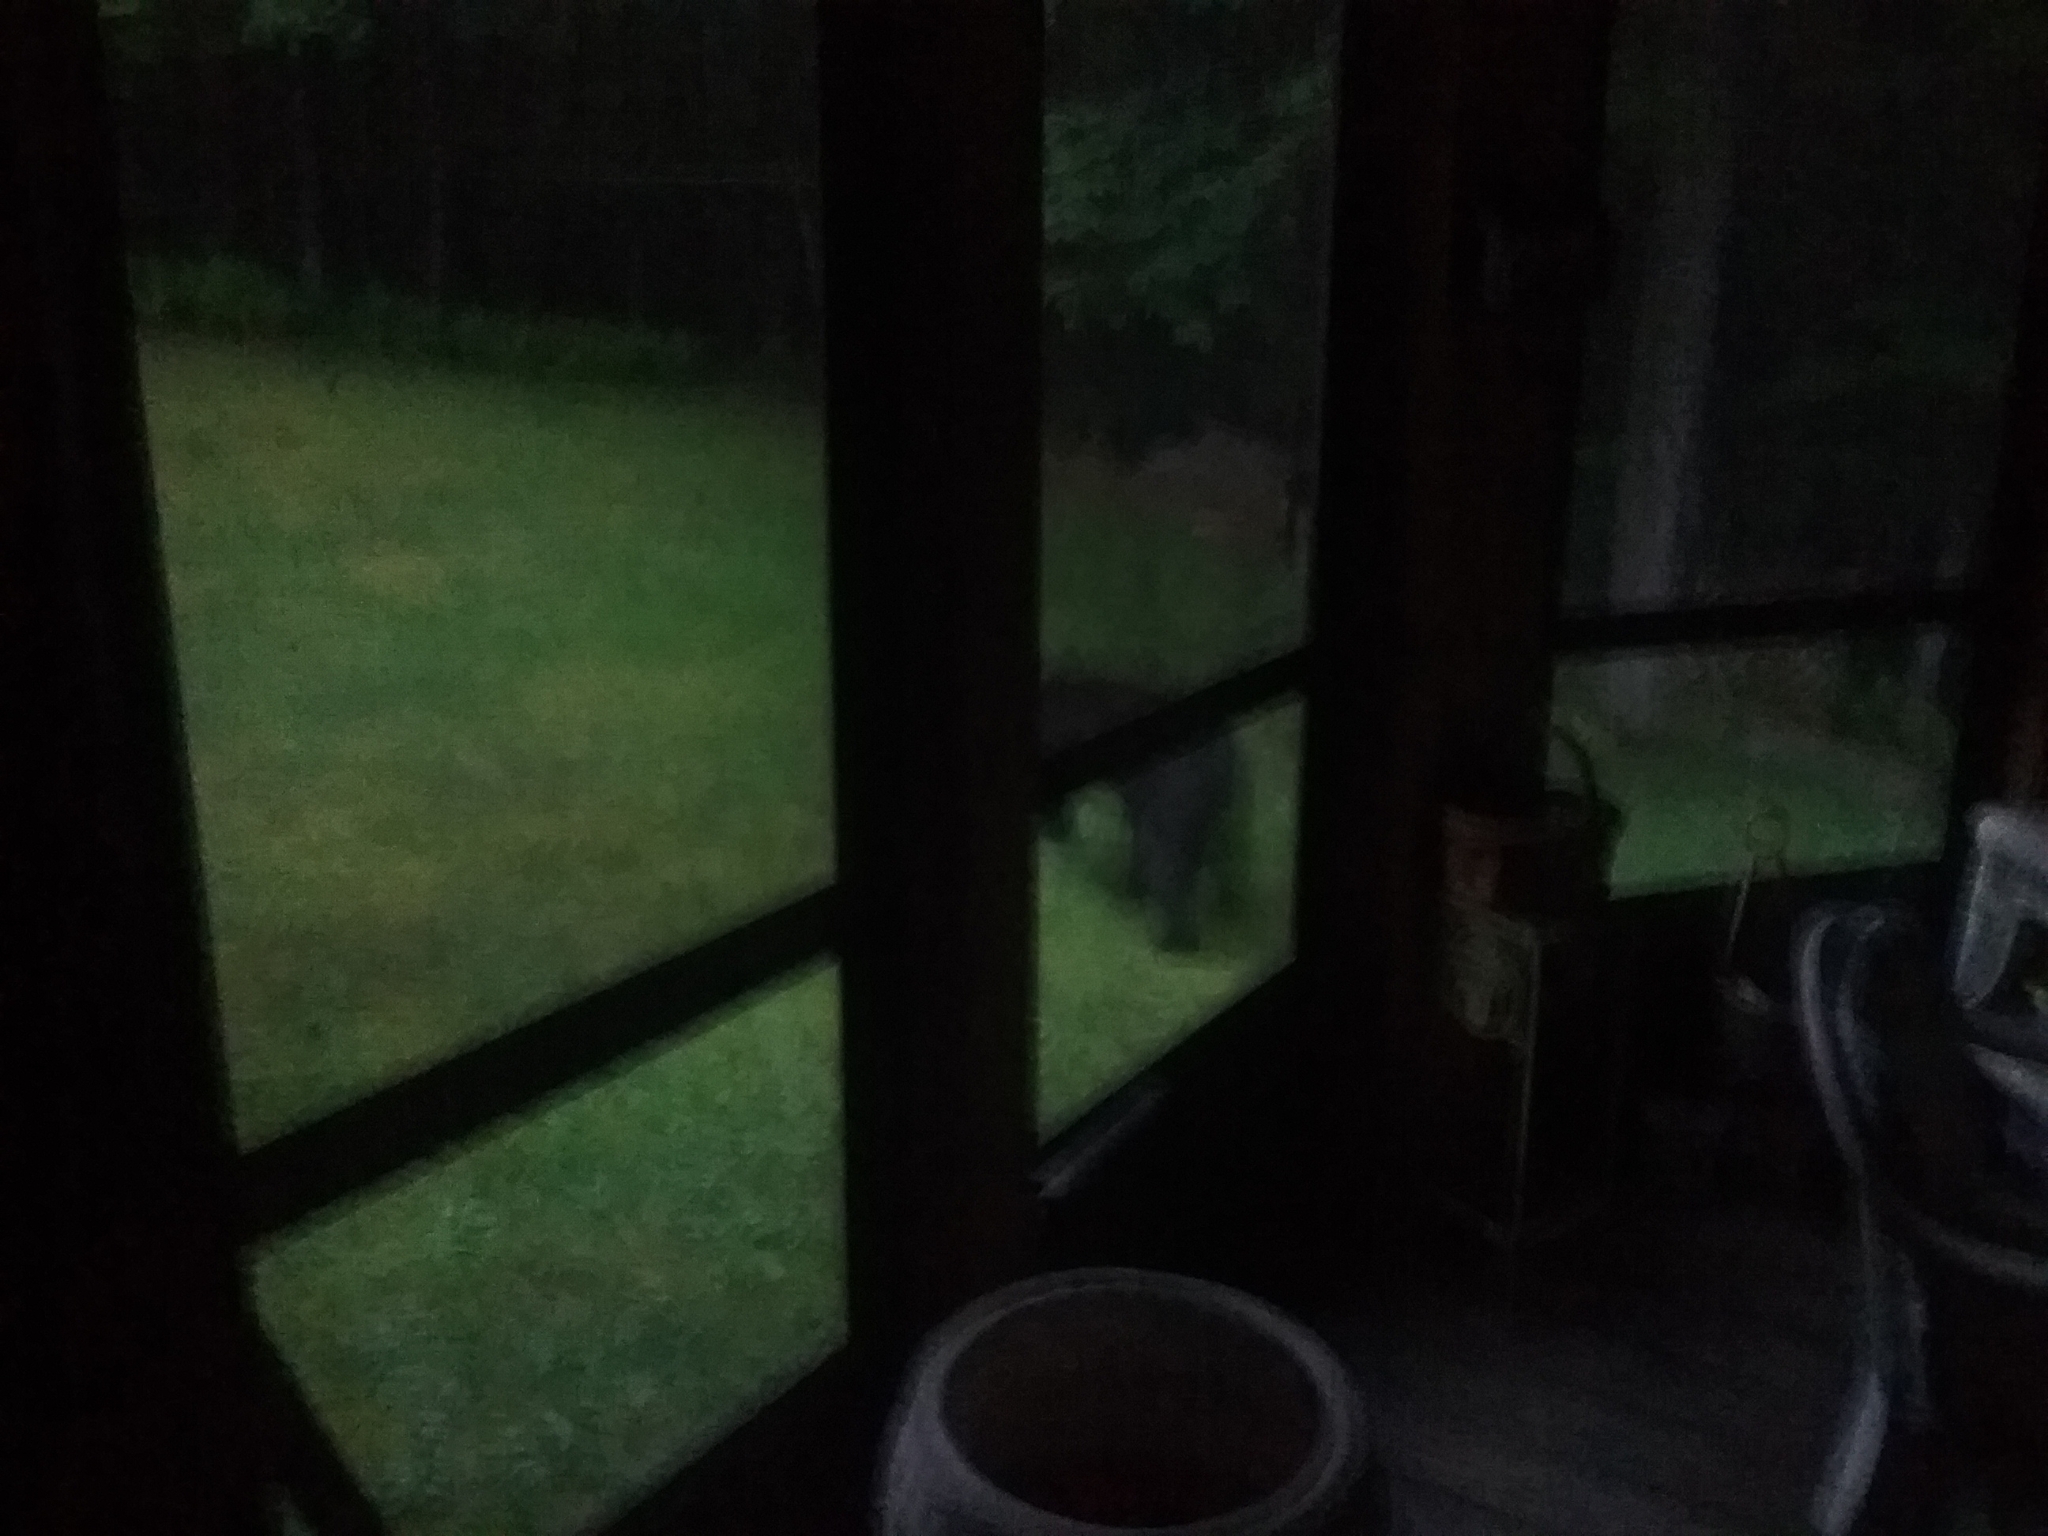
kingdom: Animalia
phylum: Chordata
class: Mammalia
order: Carnivora
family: Ursidae
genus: Ursus
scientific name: Ursus americanus
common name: American black bear
